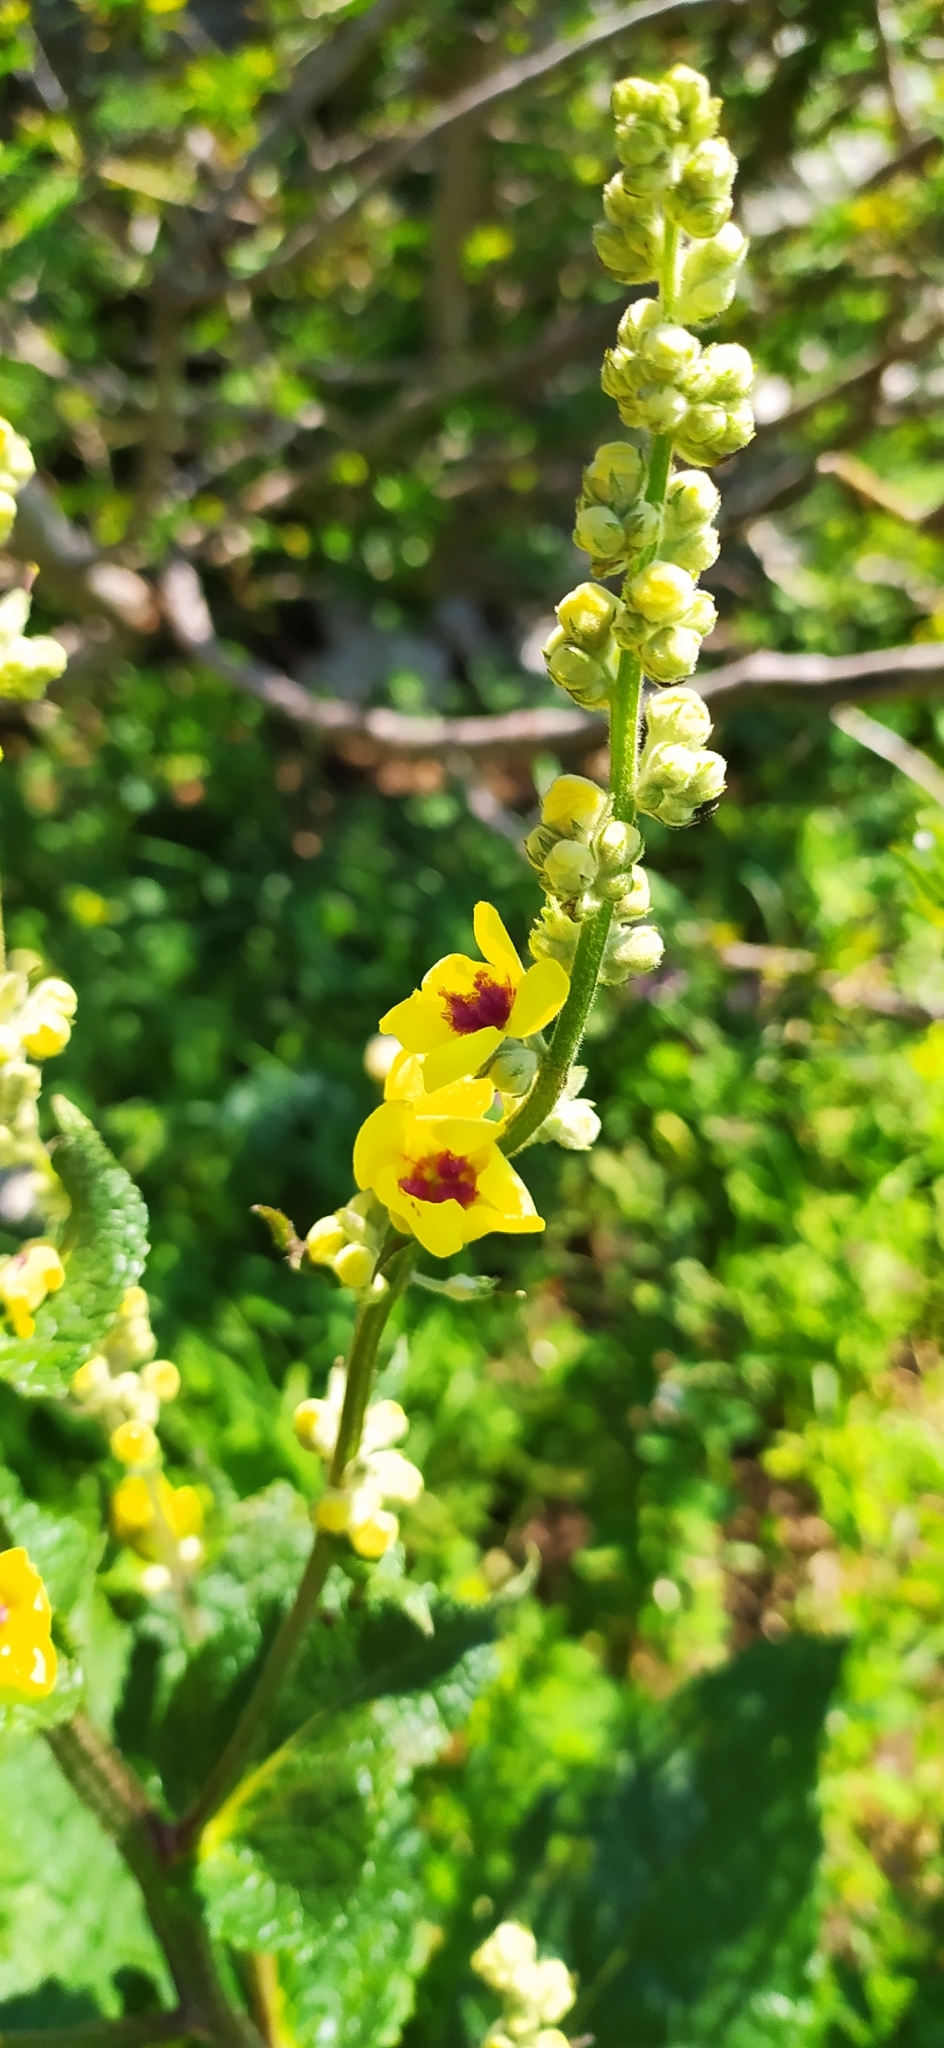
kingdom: Plantae
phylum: Tracheophyta
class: Magnoliopsida
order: Lamiales
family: Scrophulariaceae
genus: Verbascum
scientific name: Verbascum chaixii
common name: Nettle-leaved mullein
